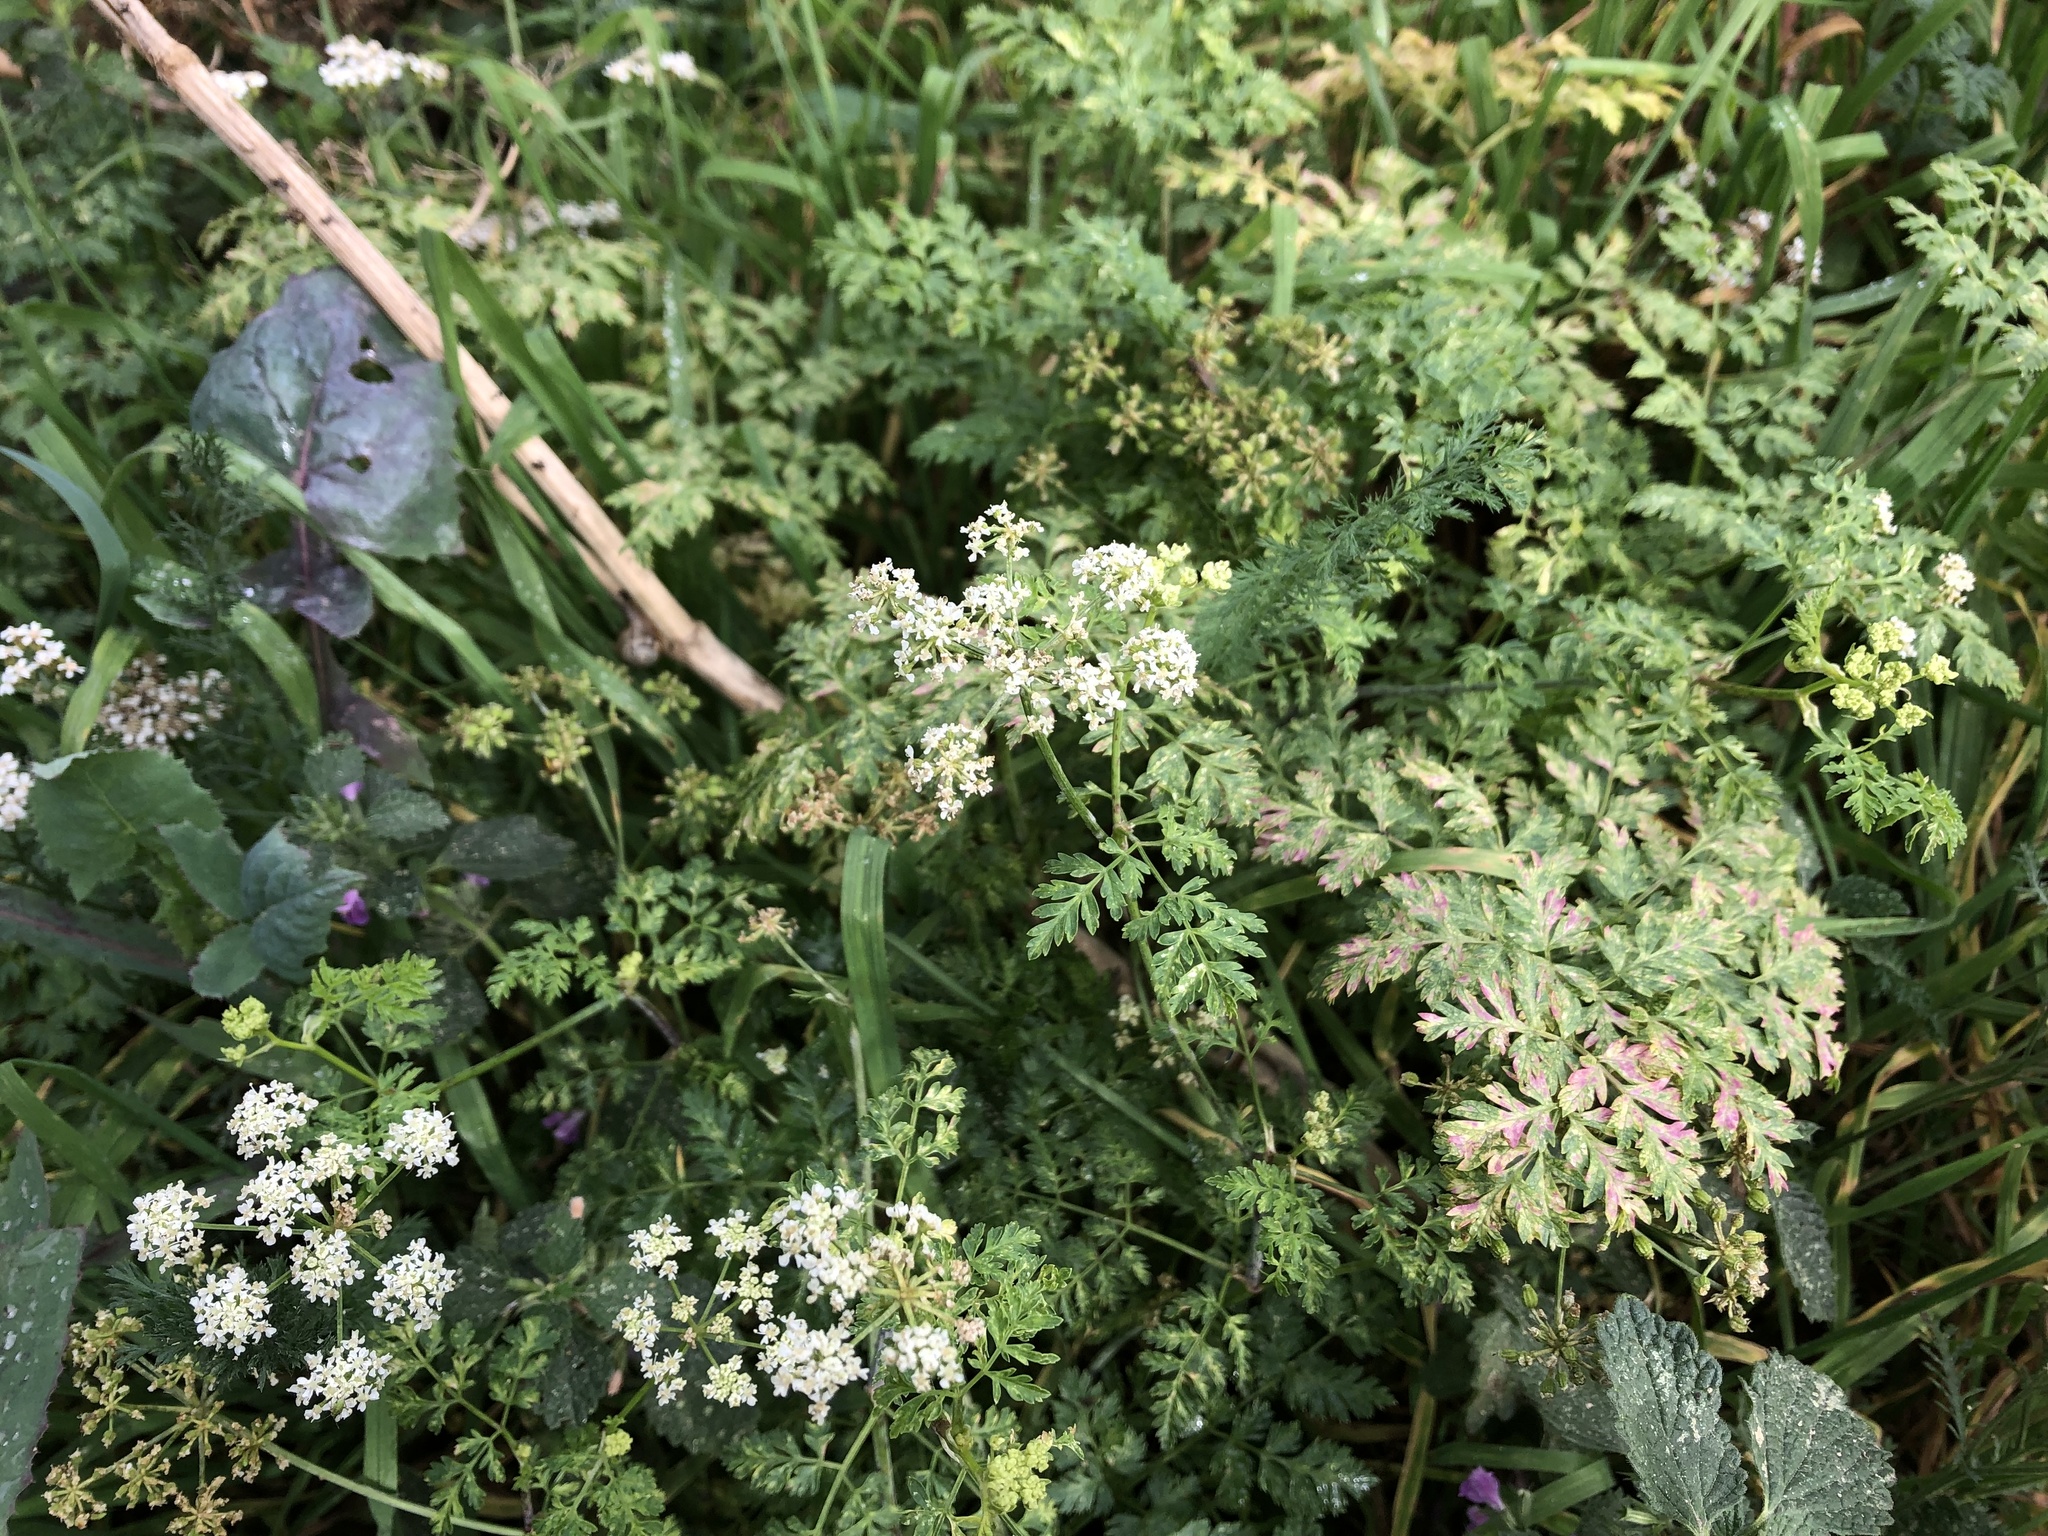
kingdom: Plantae
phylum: Tracheophyta
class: Magnoliopsida
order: Apiales
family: Apiaceae
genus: Conium
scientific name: Conium maculatum
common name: Hemlock
